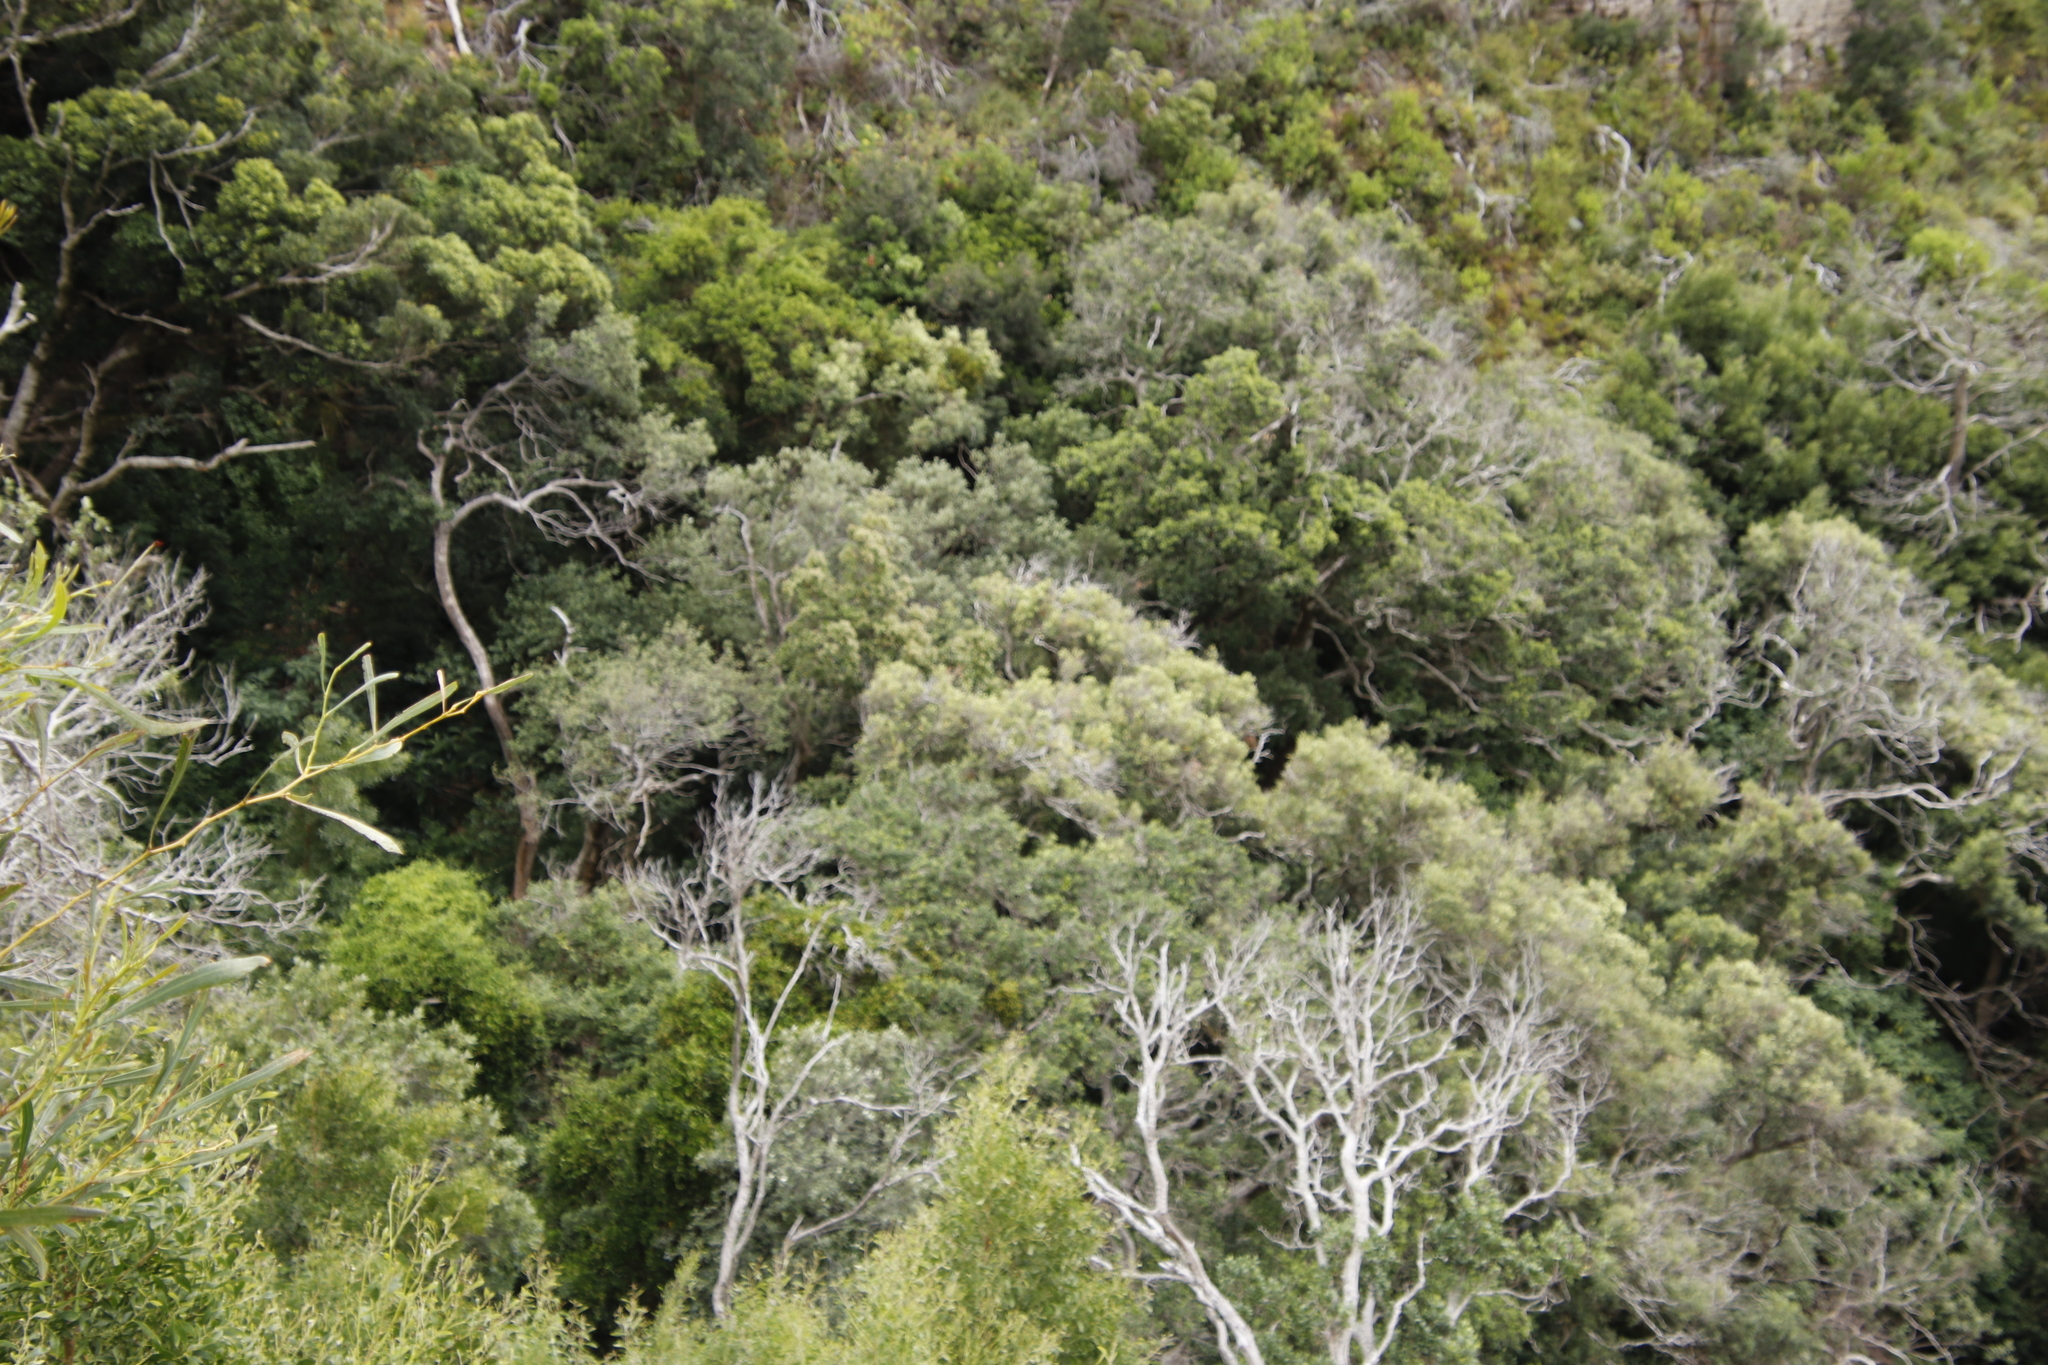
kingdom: Plantae
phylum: Tracheophyta
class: Magnoliopsida
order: Lamiales
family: Oleaceae
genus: Olea
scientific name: Olea europaea
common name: Olive
